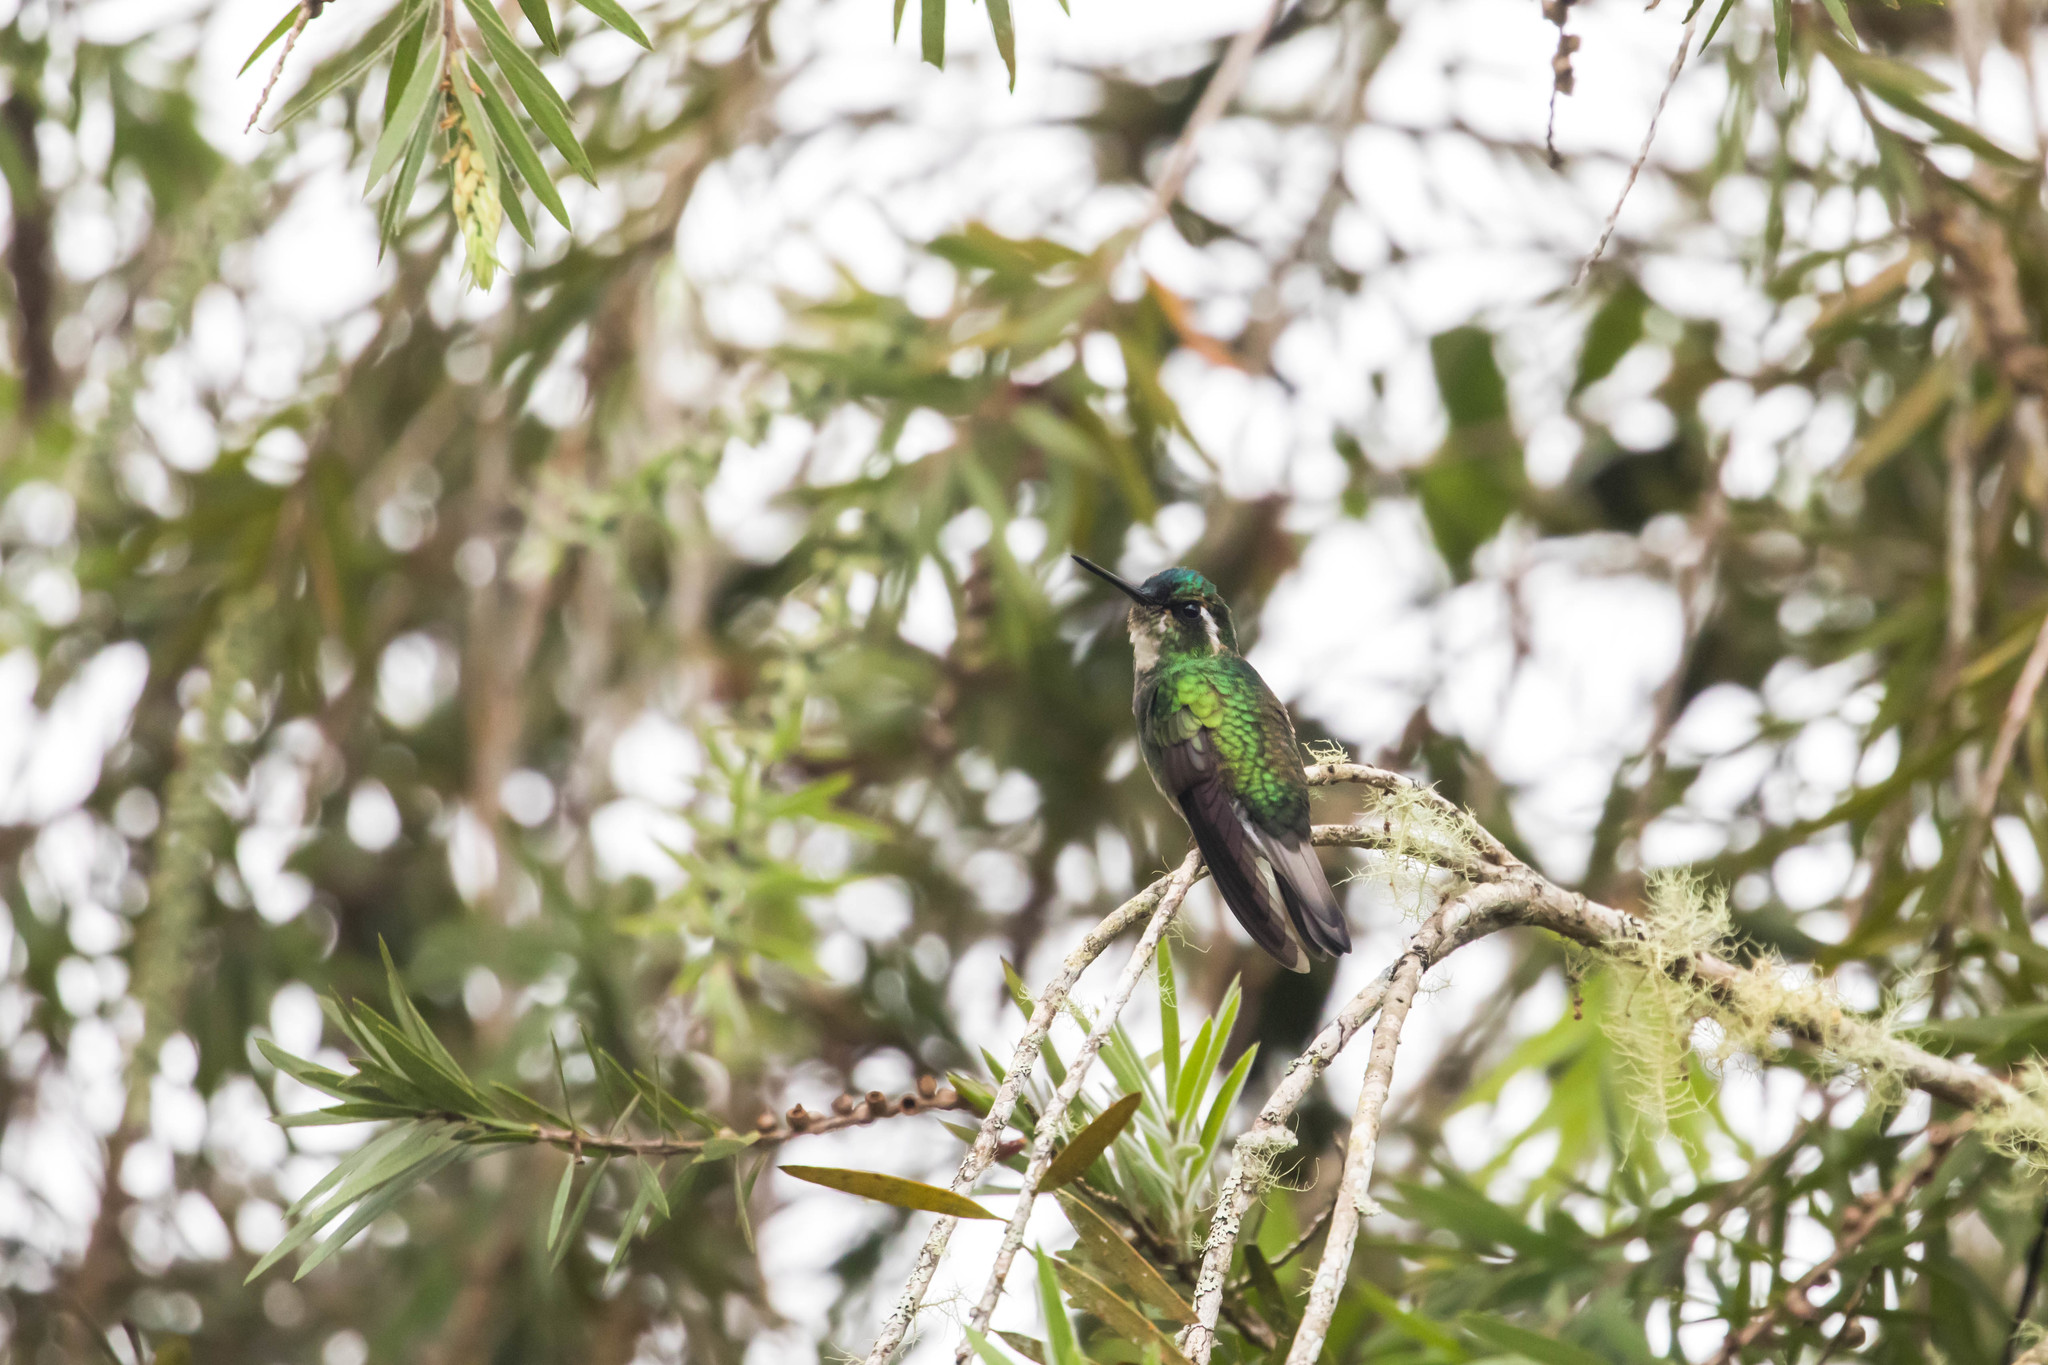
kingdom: Animalia
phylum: Chordata
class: Aves
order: Apodiformes
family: Trochilidae
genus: Lampornis
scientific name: Lampornis castaneoventris
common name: White-throated mountain-gem
